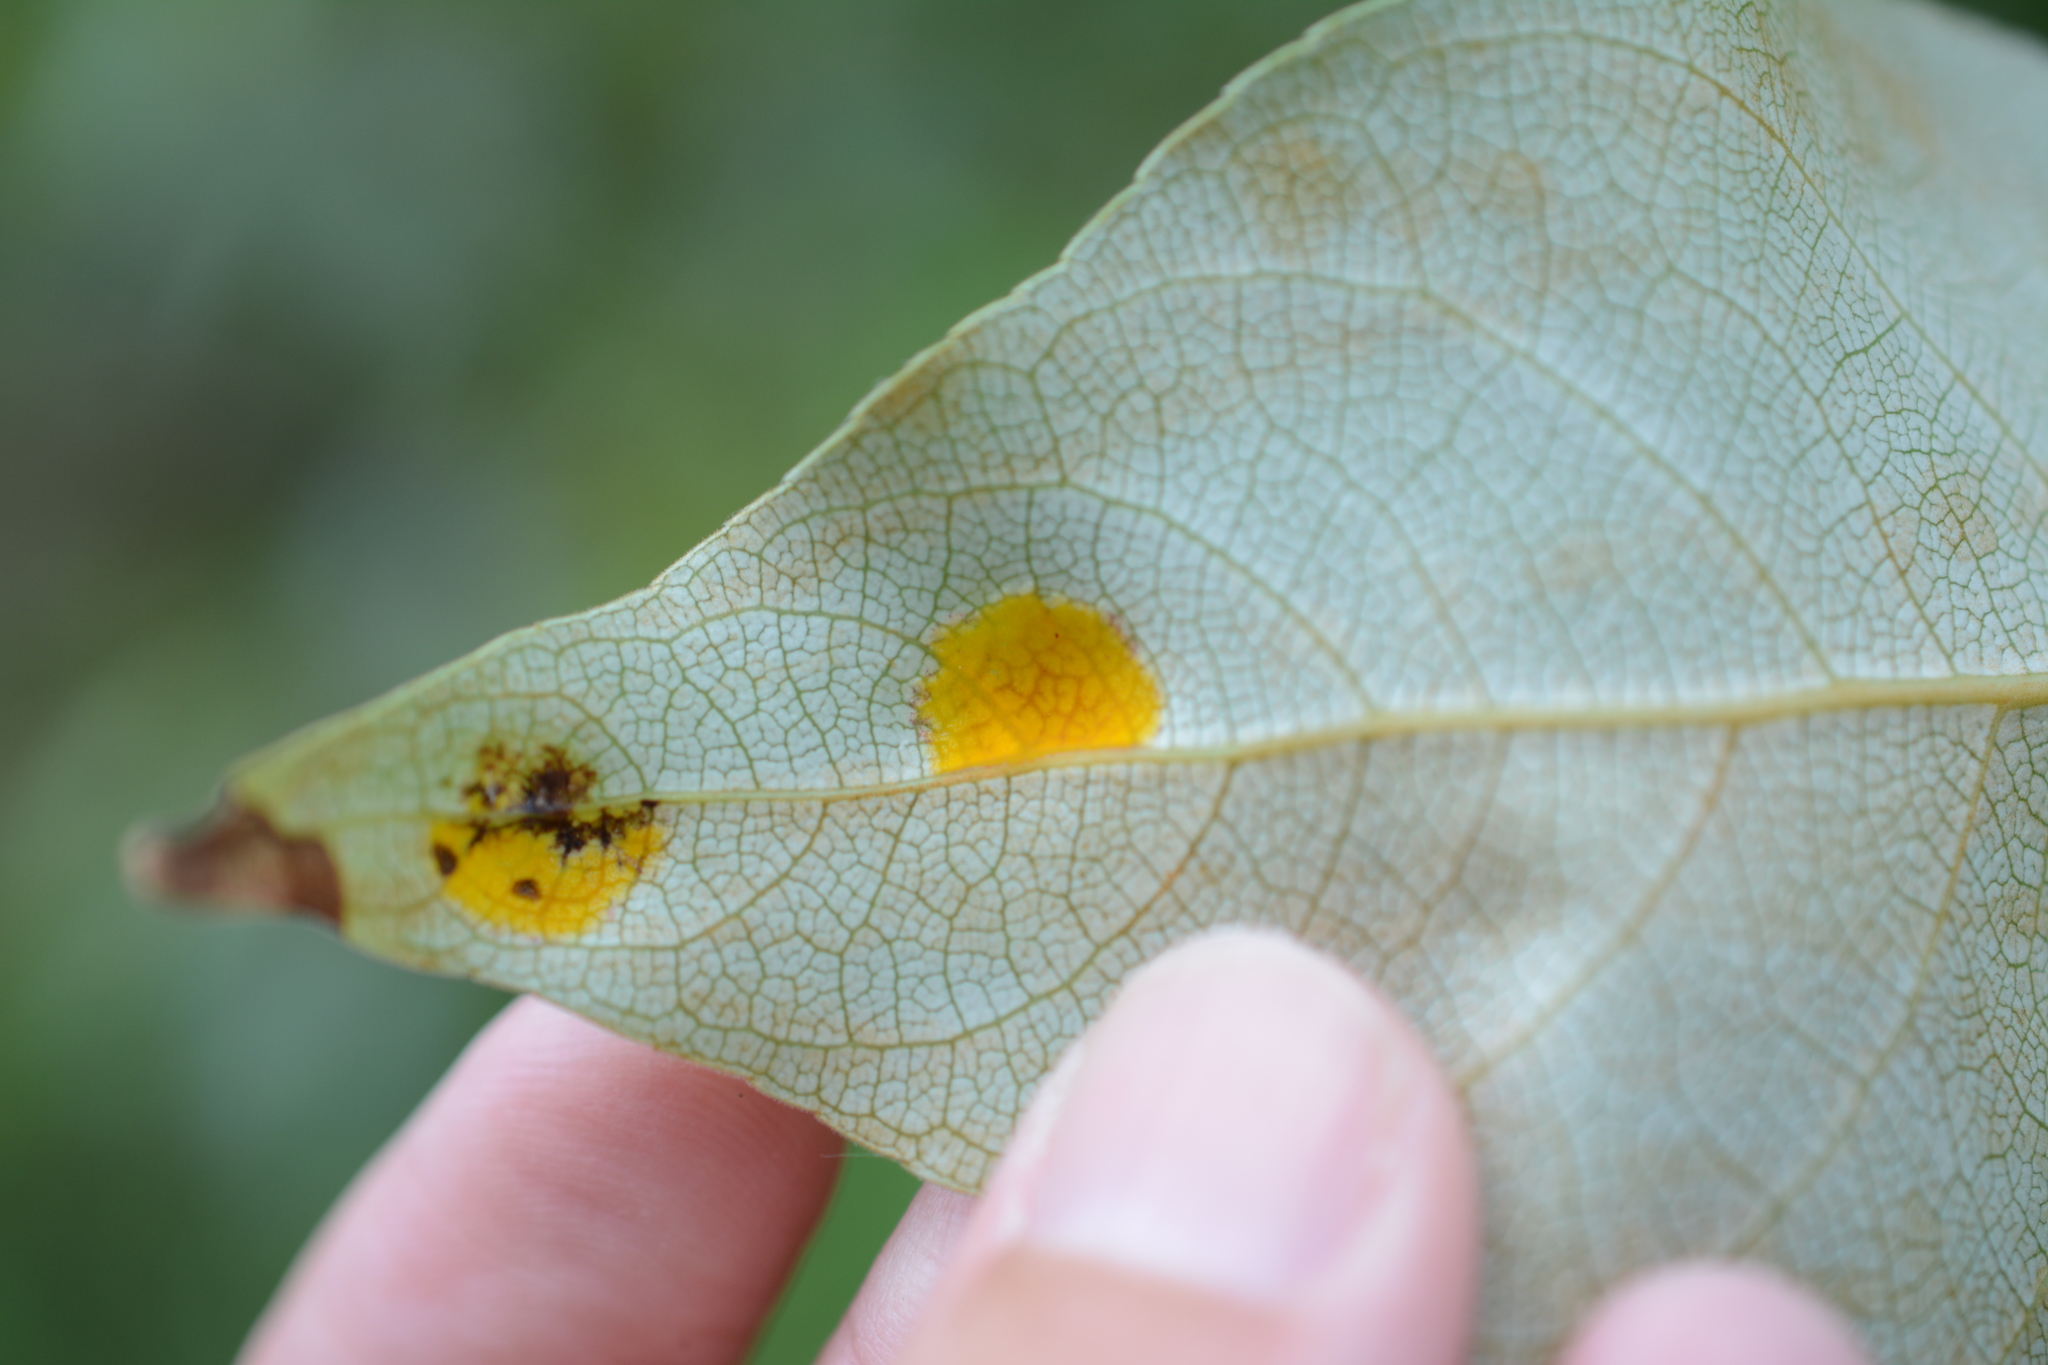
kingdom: Fungi
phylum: Ascomycota
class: Taphrinomycetes
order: Taphrinales
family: Taphrinaceae
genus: Taphrina
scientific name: Taphrina populi-salicis
